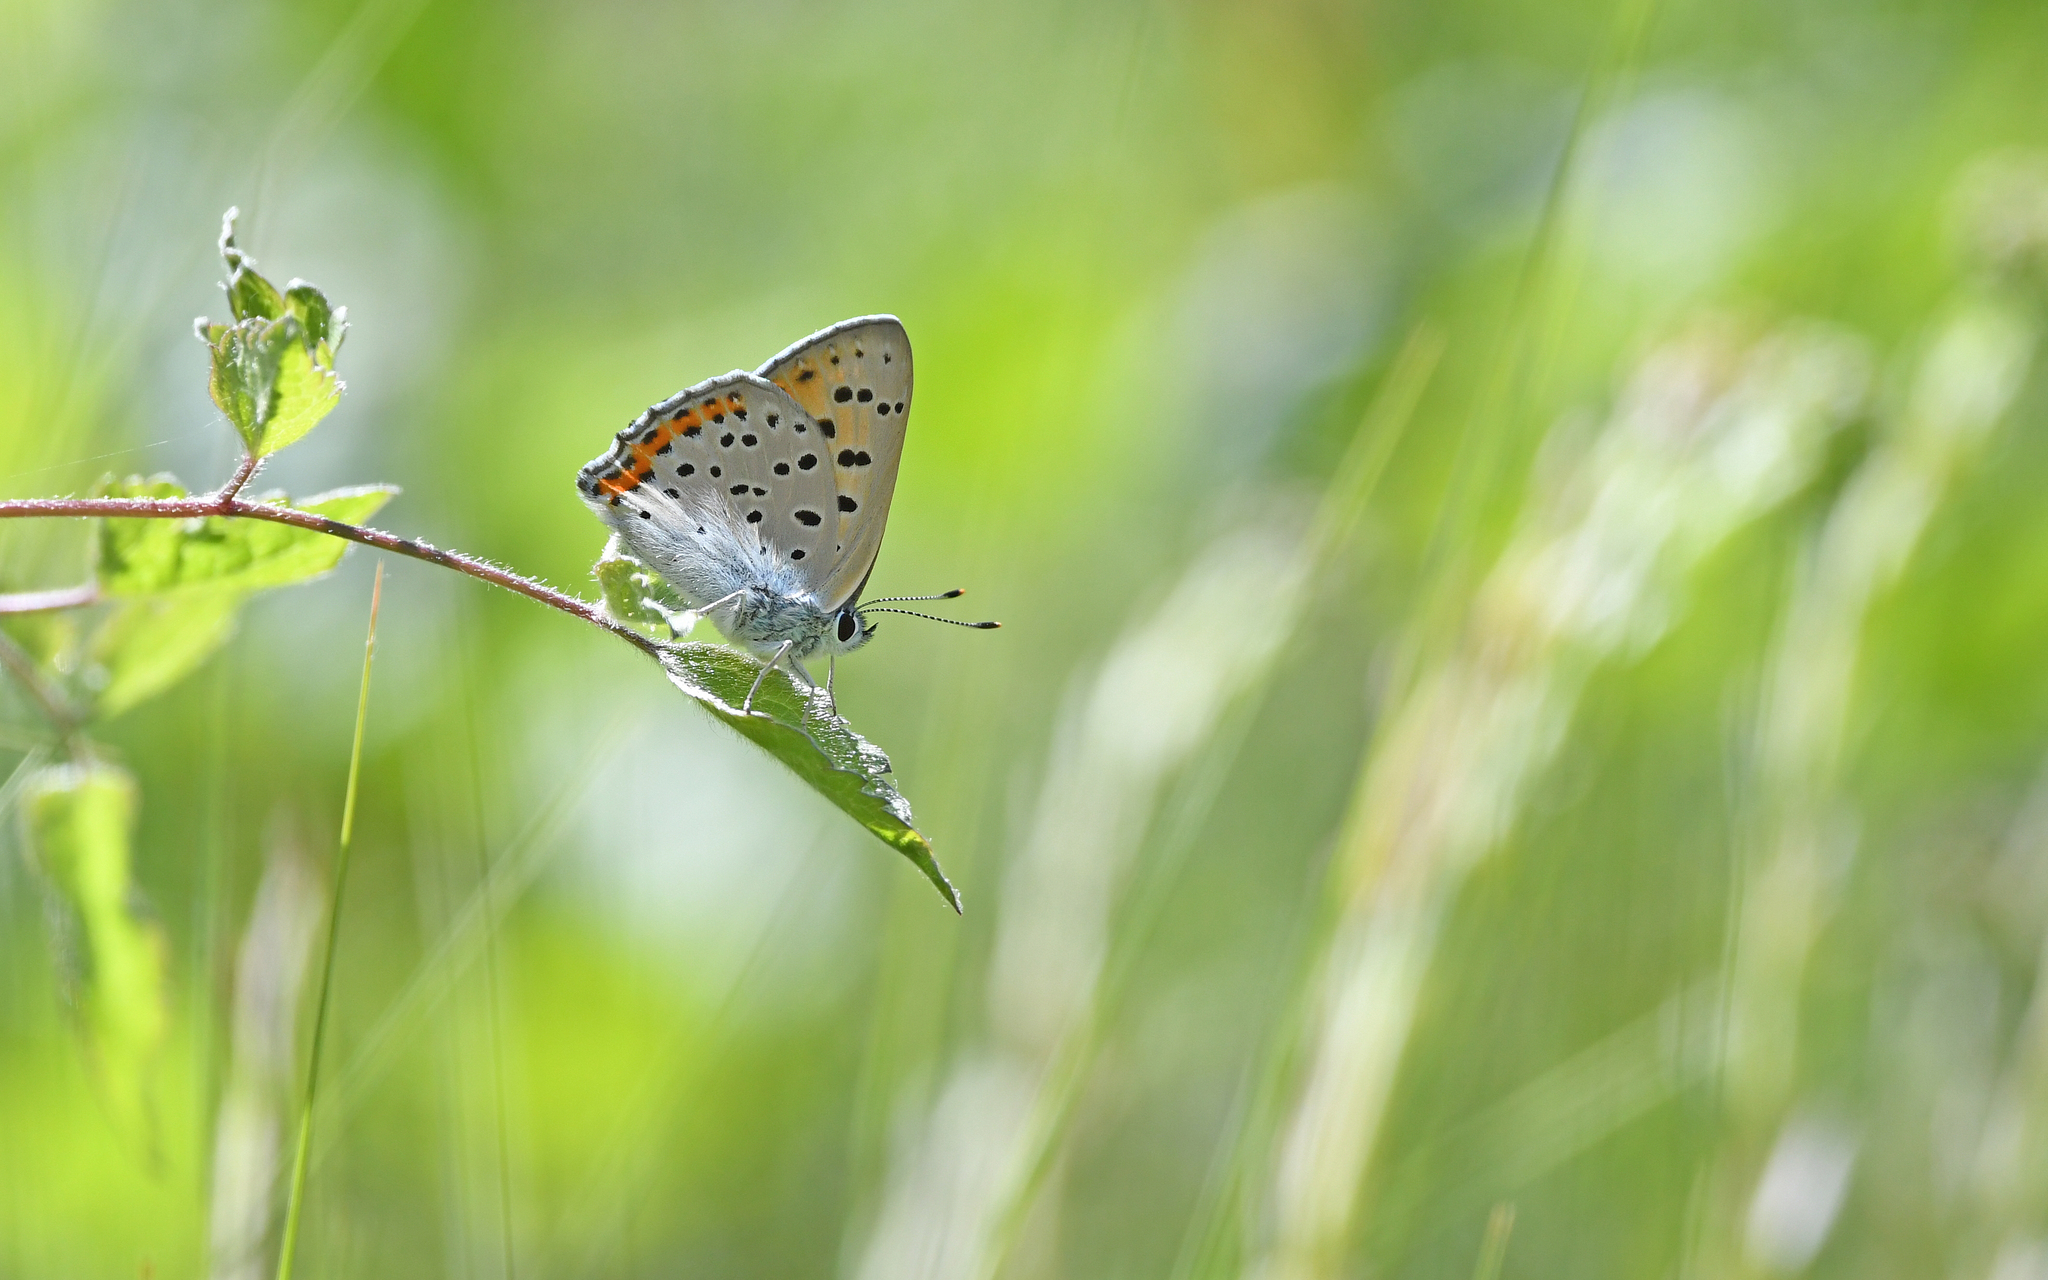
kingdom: Animalia
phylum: Arthropoda
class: Insecta
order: Lepidoptera
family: Lycaenidae
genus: Lycaena
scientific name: Lycaena alciphron
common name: Purple-shot copper
